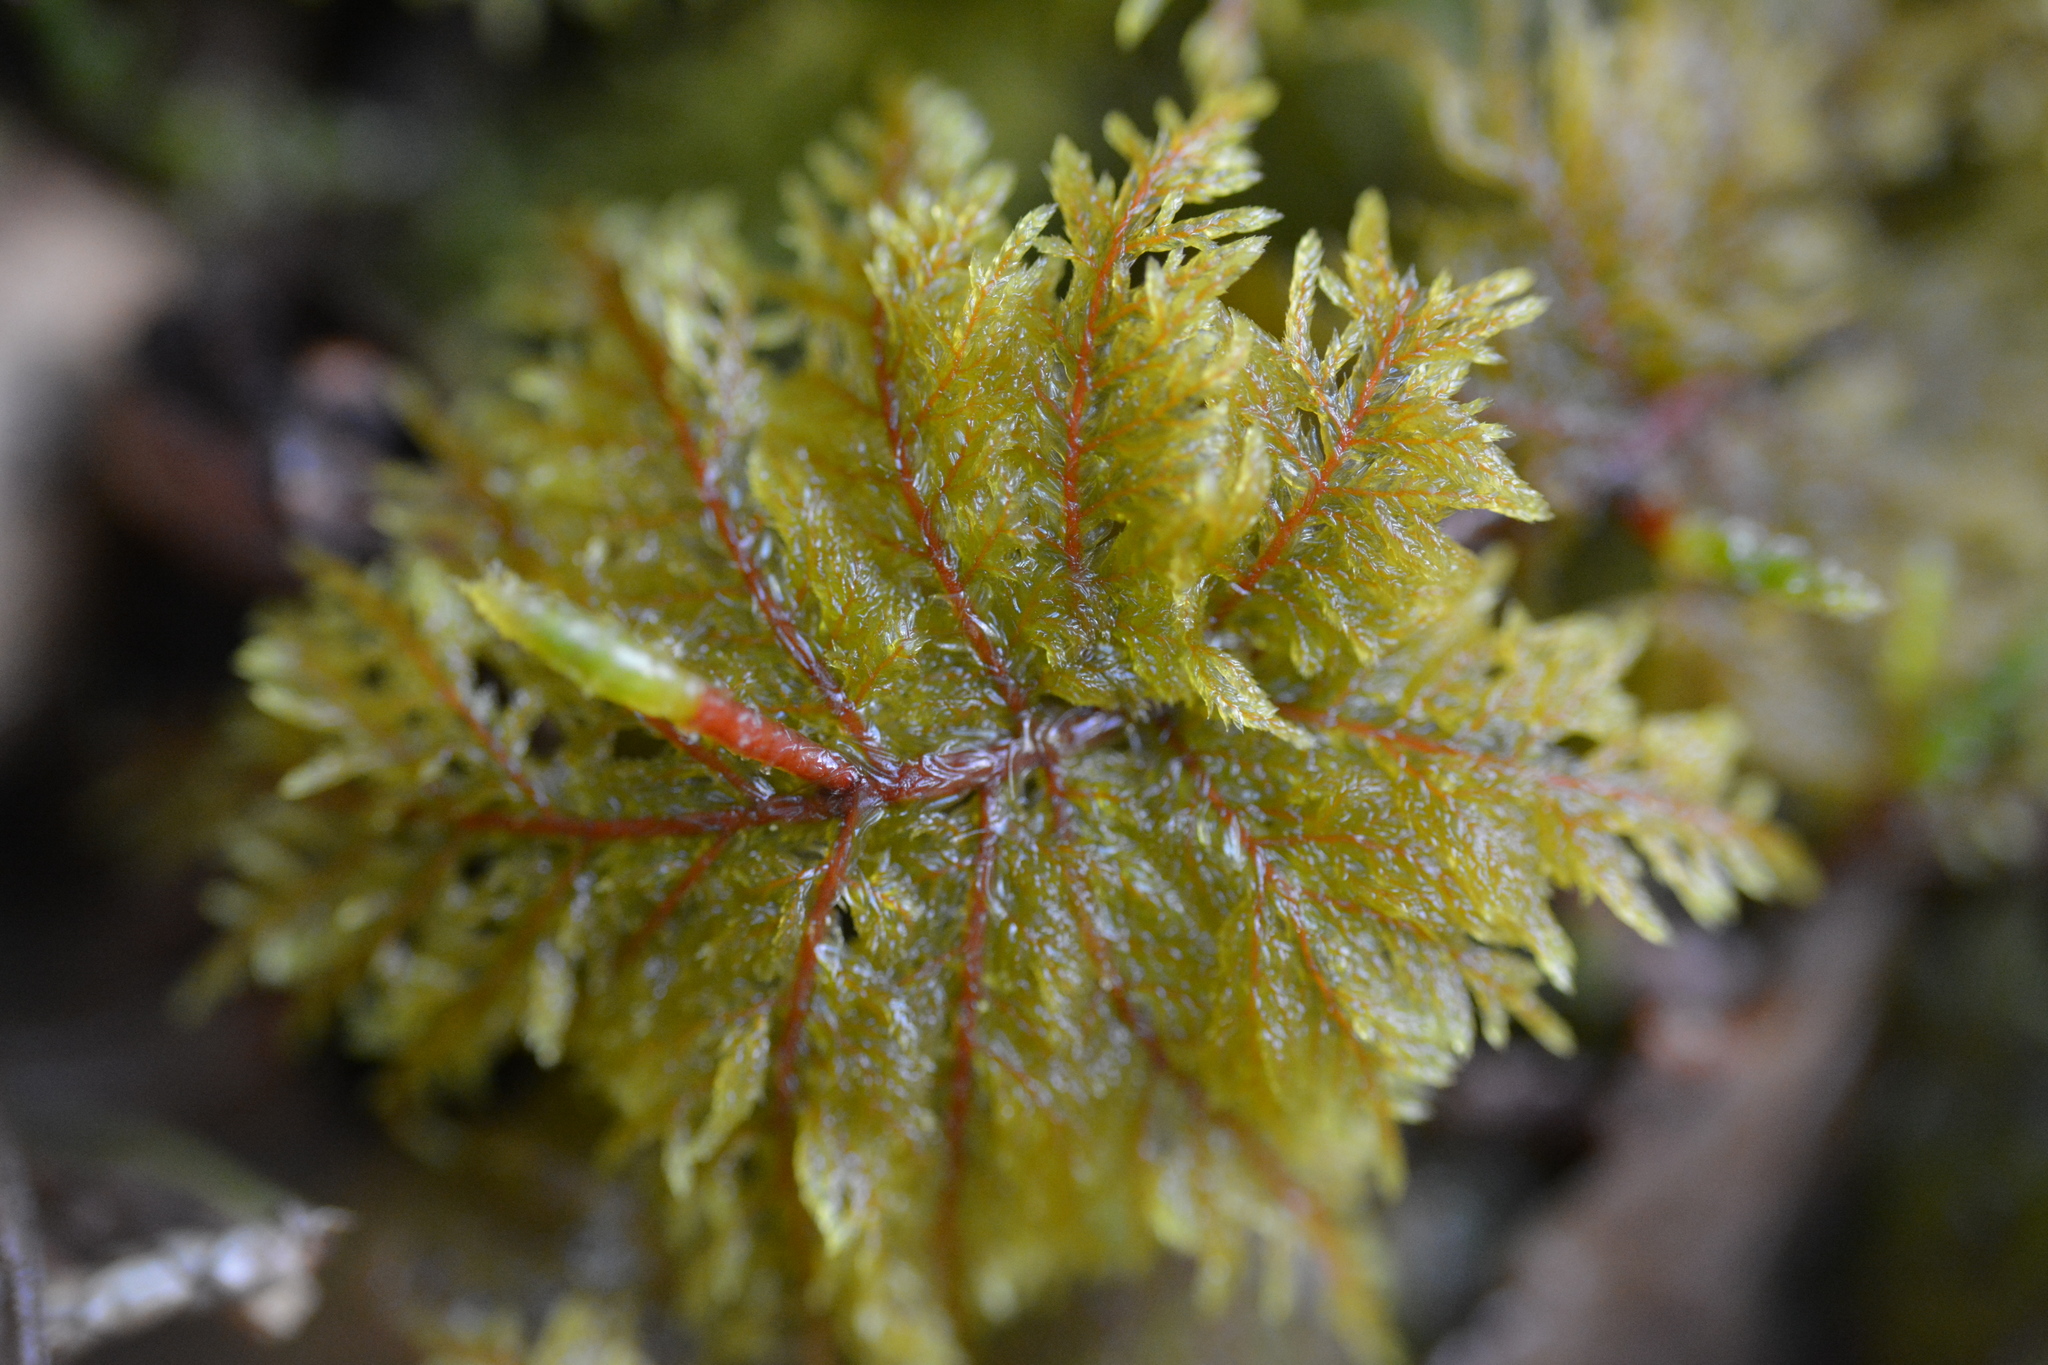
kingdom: Plantae
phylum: Bryophyta
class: Bryopsida
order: Hypnales
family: Hylocomiaceae
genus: Hylocomium
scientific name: Hylocomium splendens
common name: Stairstep moss
